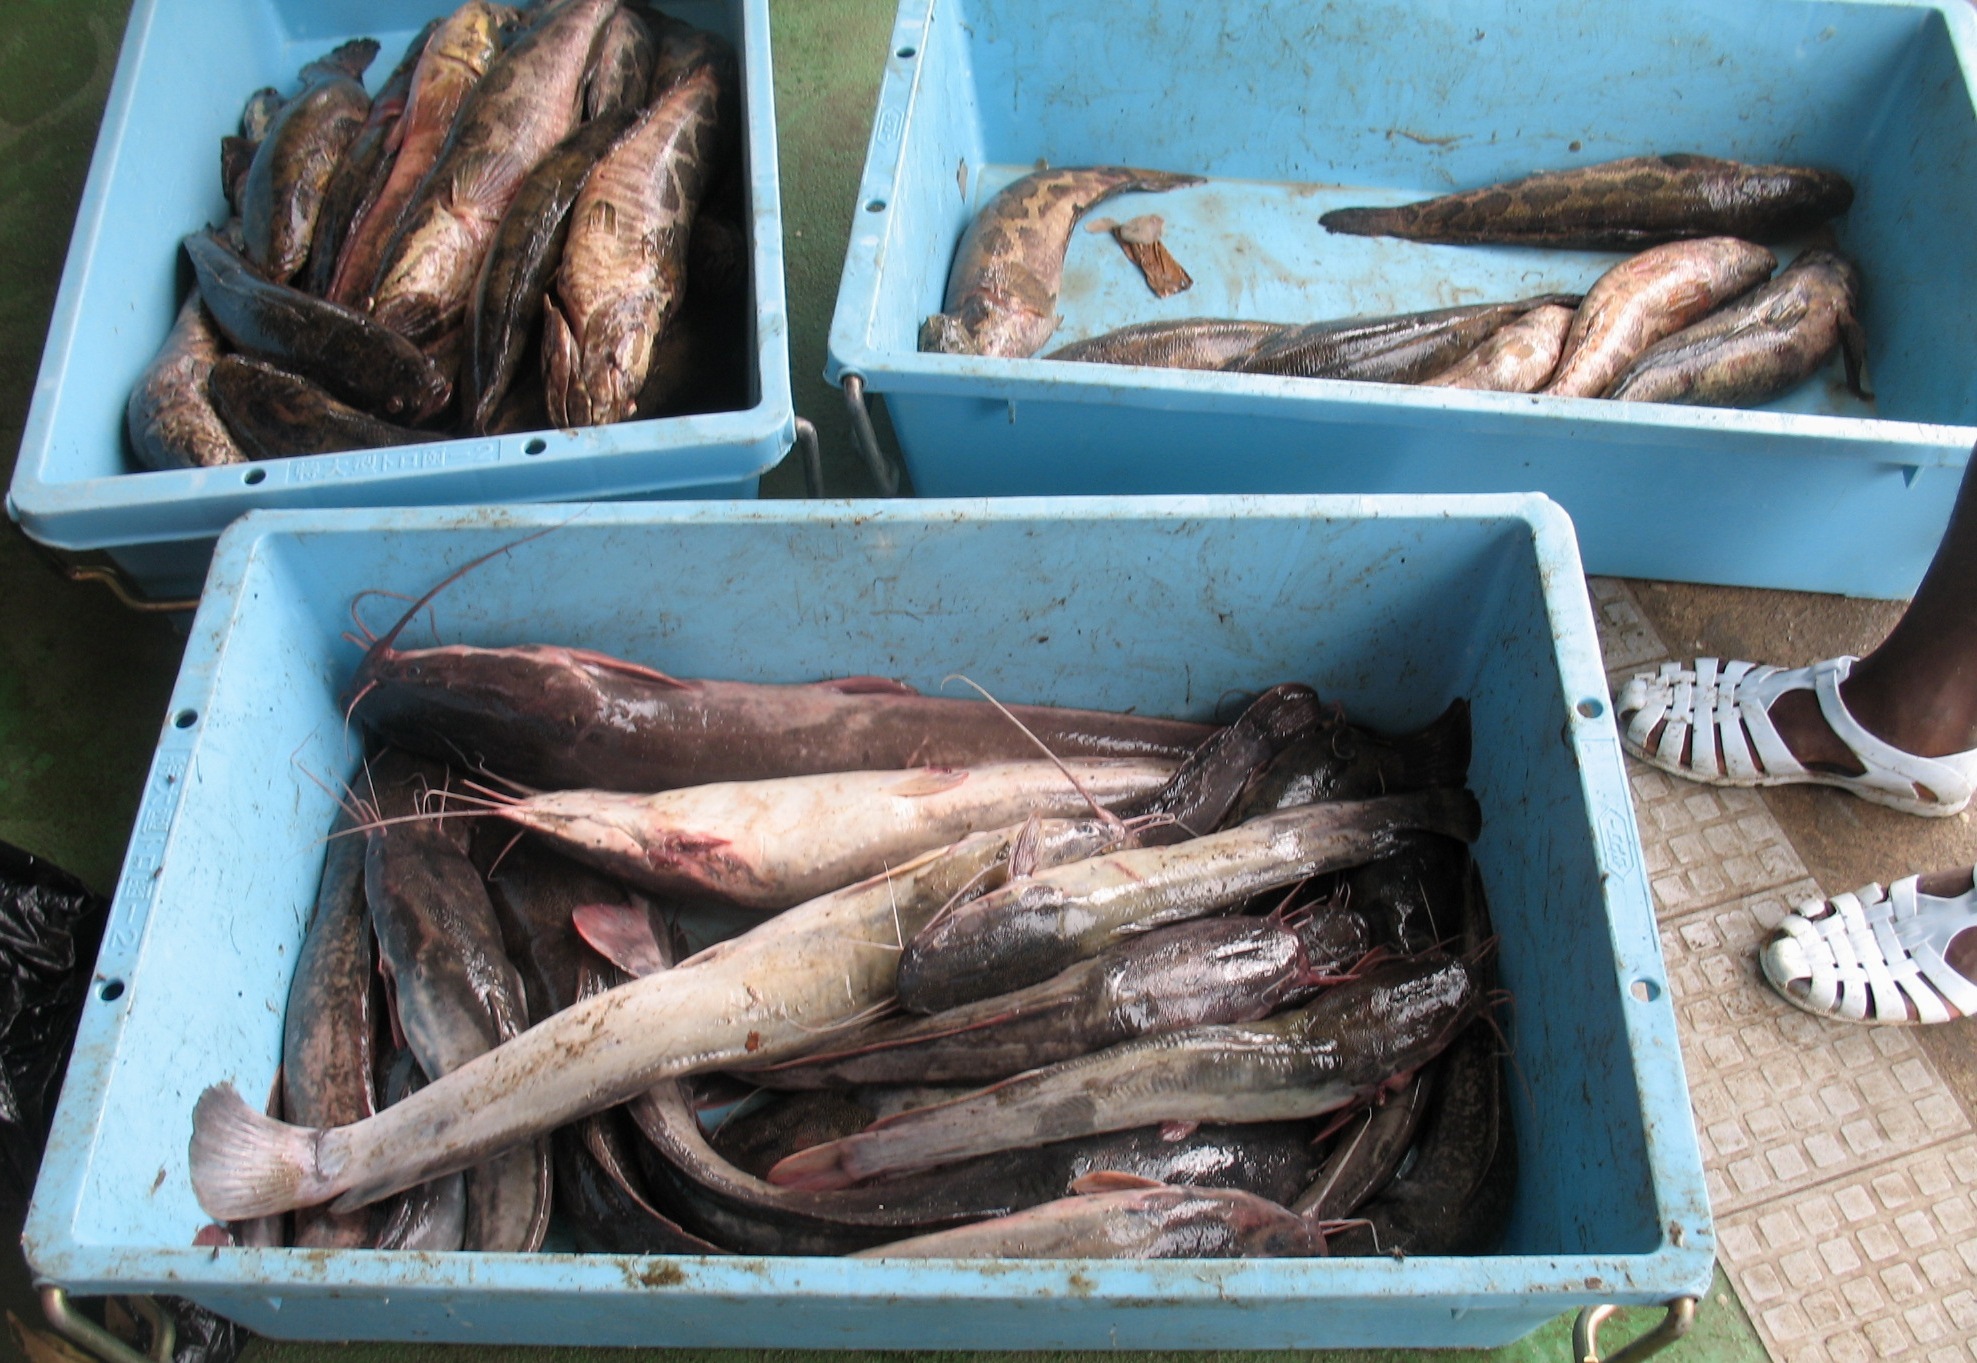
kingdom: Animalia
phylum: Chordata
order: Siluriformes
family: Clariidae
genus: Clarias
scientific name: Clarias gariepinus
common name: African catfish
